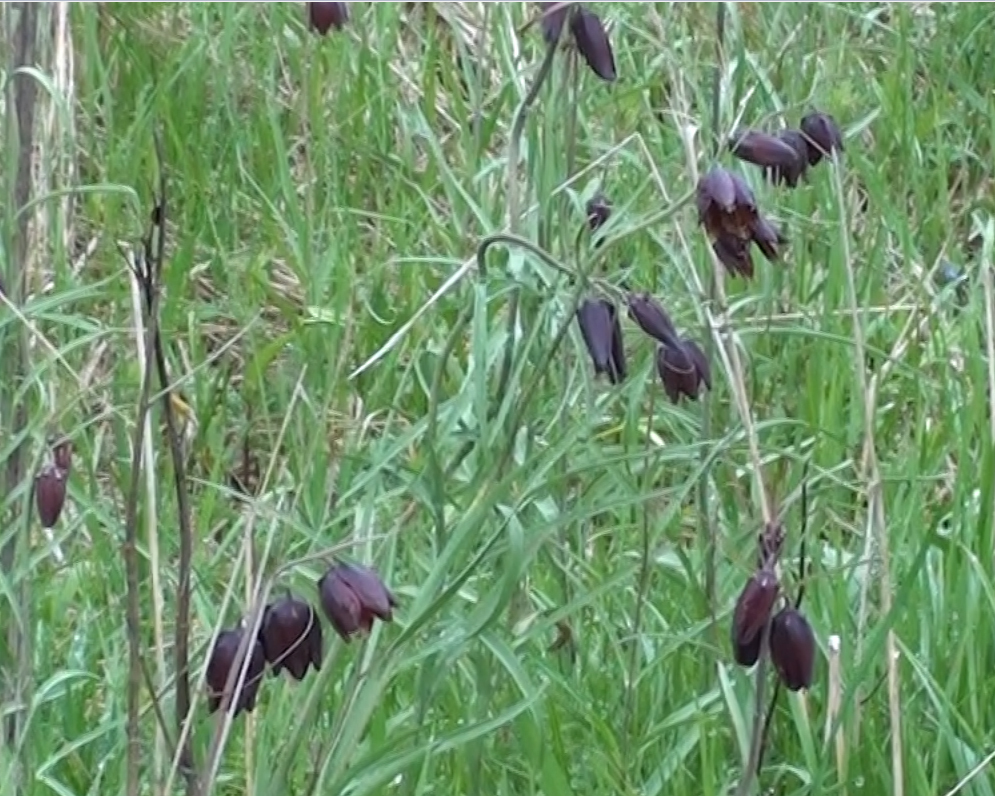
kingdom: Plantae
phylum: Tracheophyta
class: Liliopsida
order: Liliales
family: Liliaceae
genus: Fritillaria
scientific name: Fritillaria ruthenica
